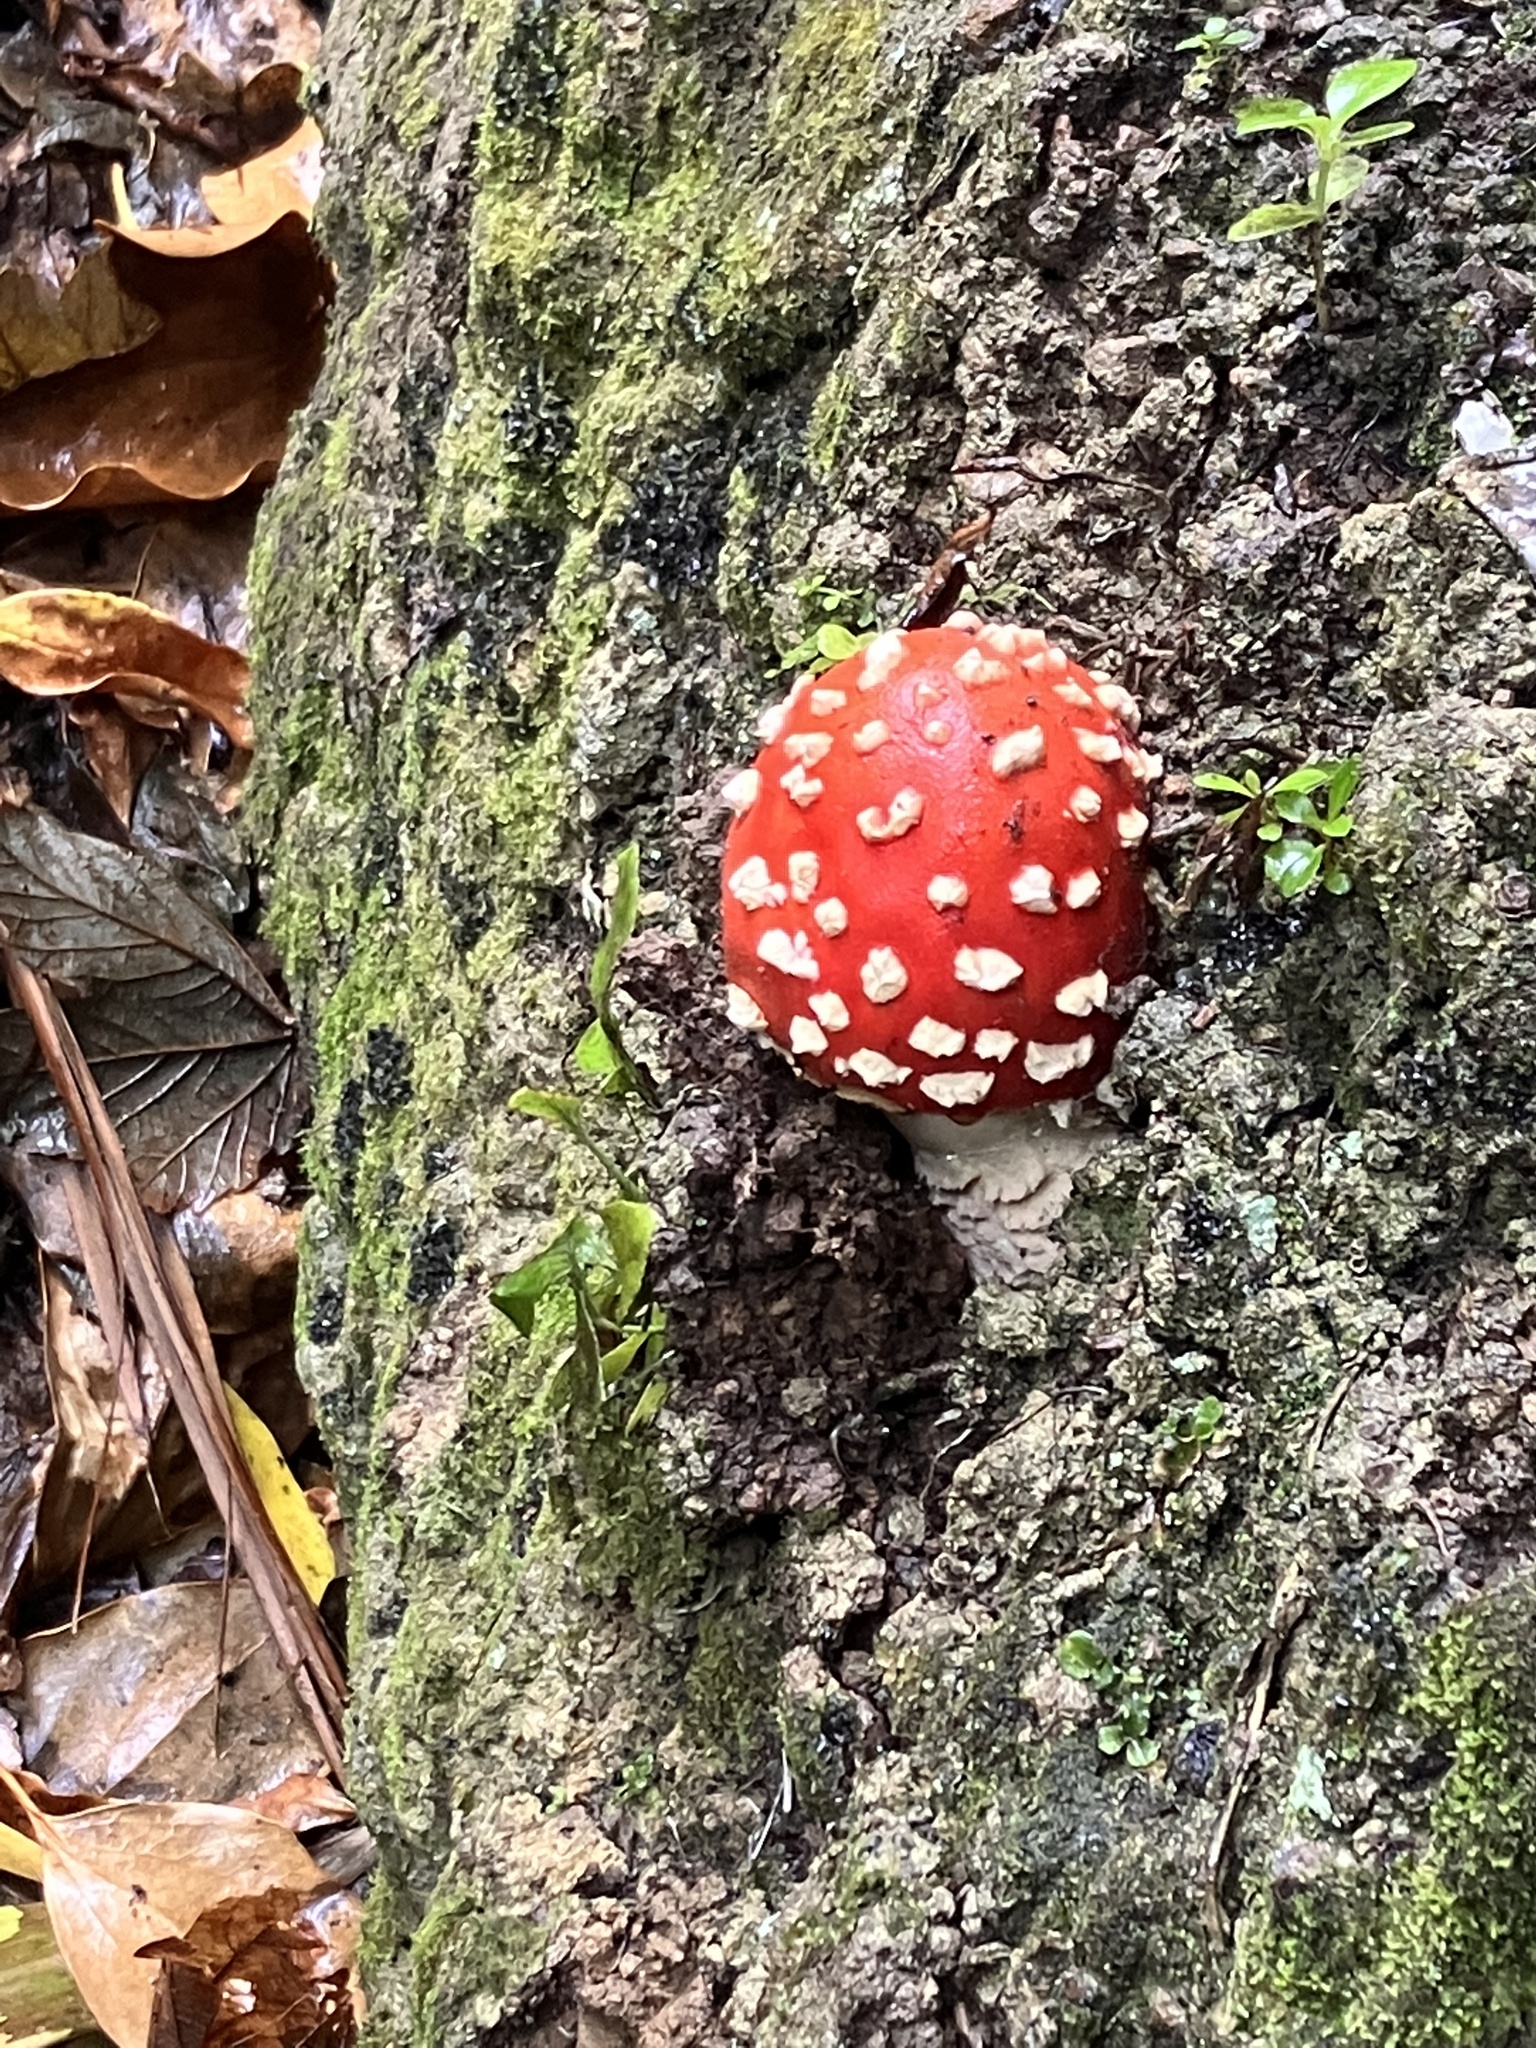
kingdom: Fungi
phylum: Basidiomycota
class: Agaricomycetes
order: Agaricales
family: Amanitaceae
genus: Amanita
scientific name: Amanita muscaria
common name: Fly agaric
